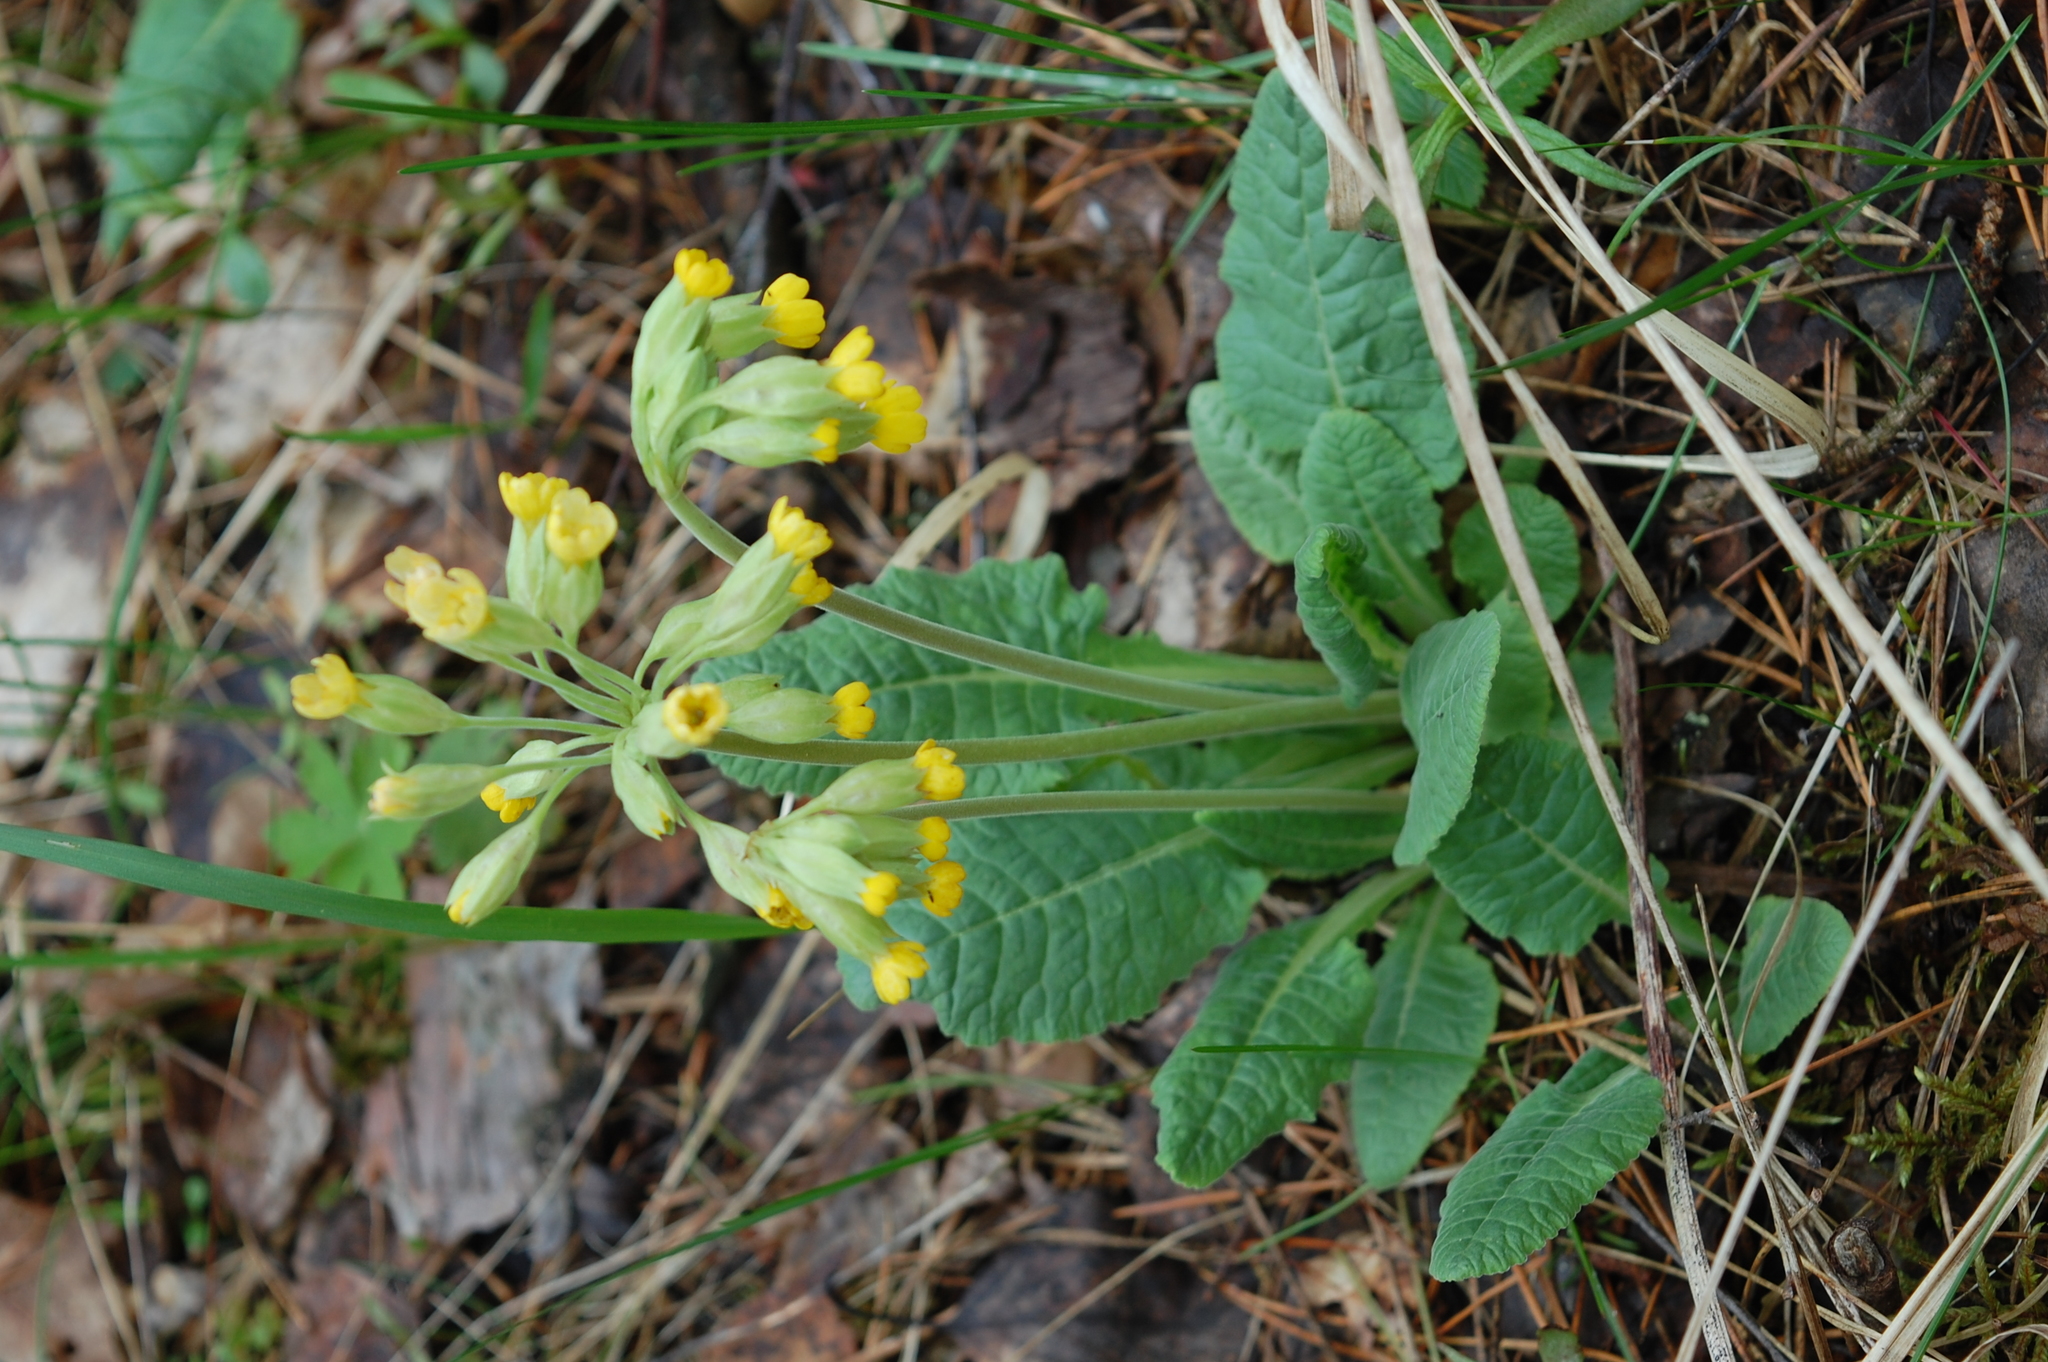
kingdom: Plantae
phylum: Tracheophyta
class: Magnoliopsida
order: Ericales
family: Primulaceae
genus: Primula
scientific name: Primula veris
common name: Cowslip
